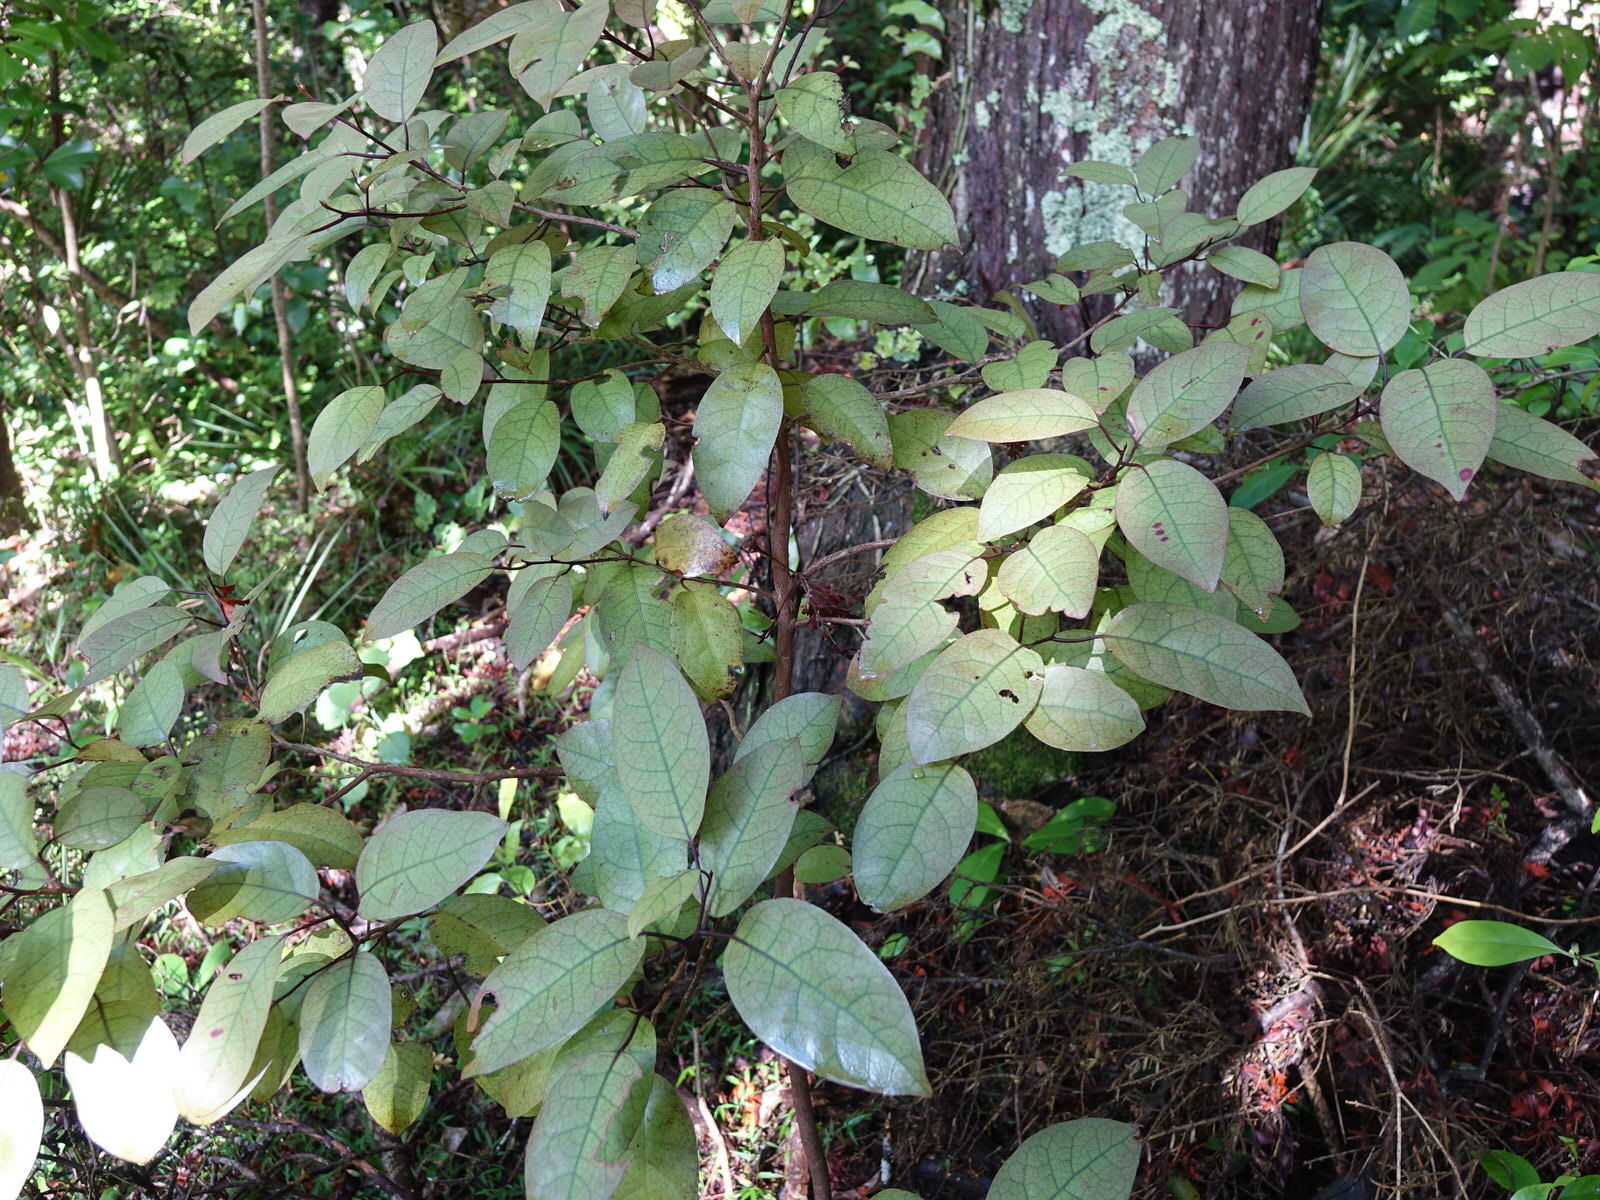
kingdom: Plantae
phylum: Tracheophyta
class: Magnoliopsida
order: Laurales
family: Lauraceae
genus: Litsea
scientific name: Litsea calicaris
